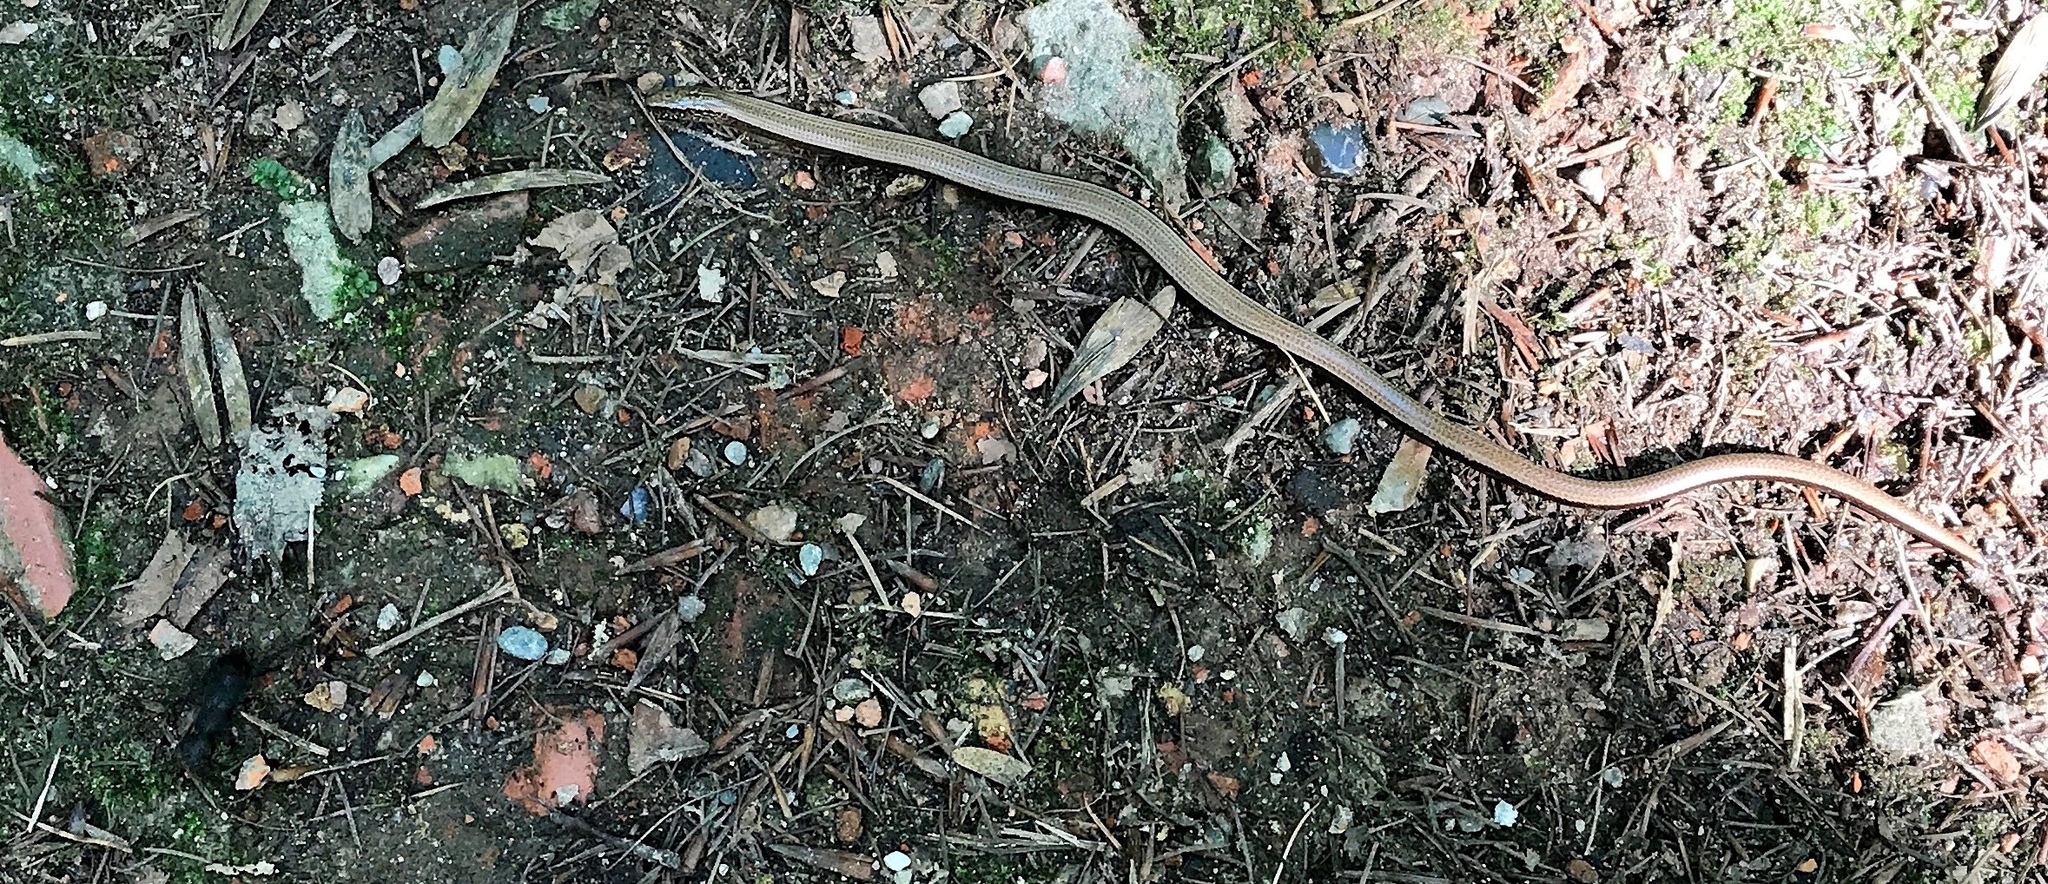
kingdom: Animalia
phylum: Chordata
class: Squamata
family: Anguidae
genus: Anguis
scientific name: Anguis fragilis
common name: Slow worm
